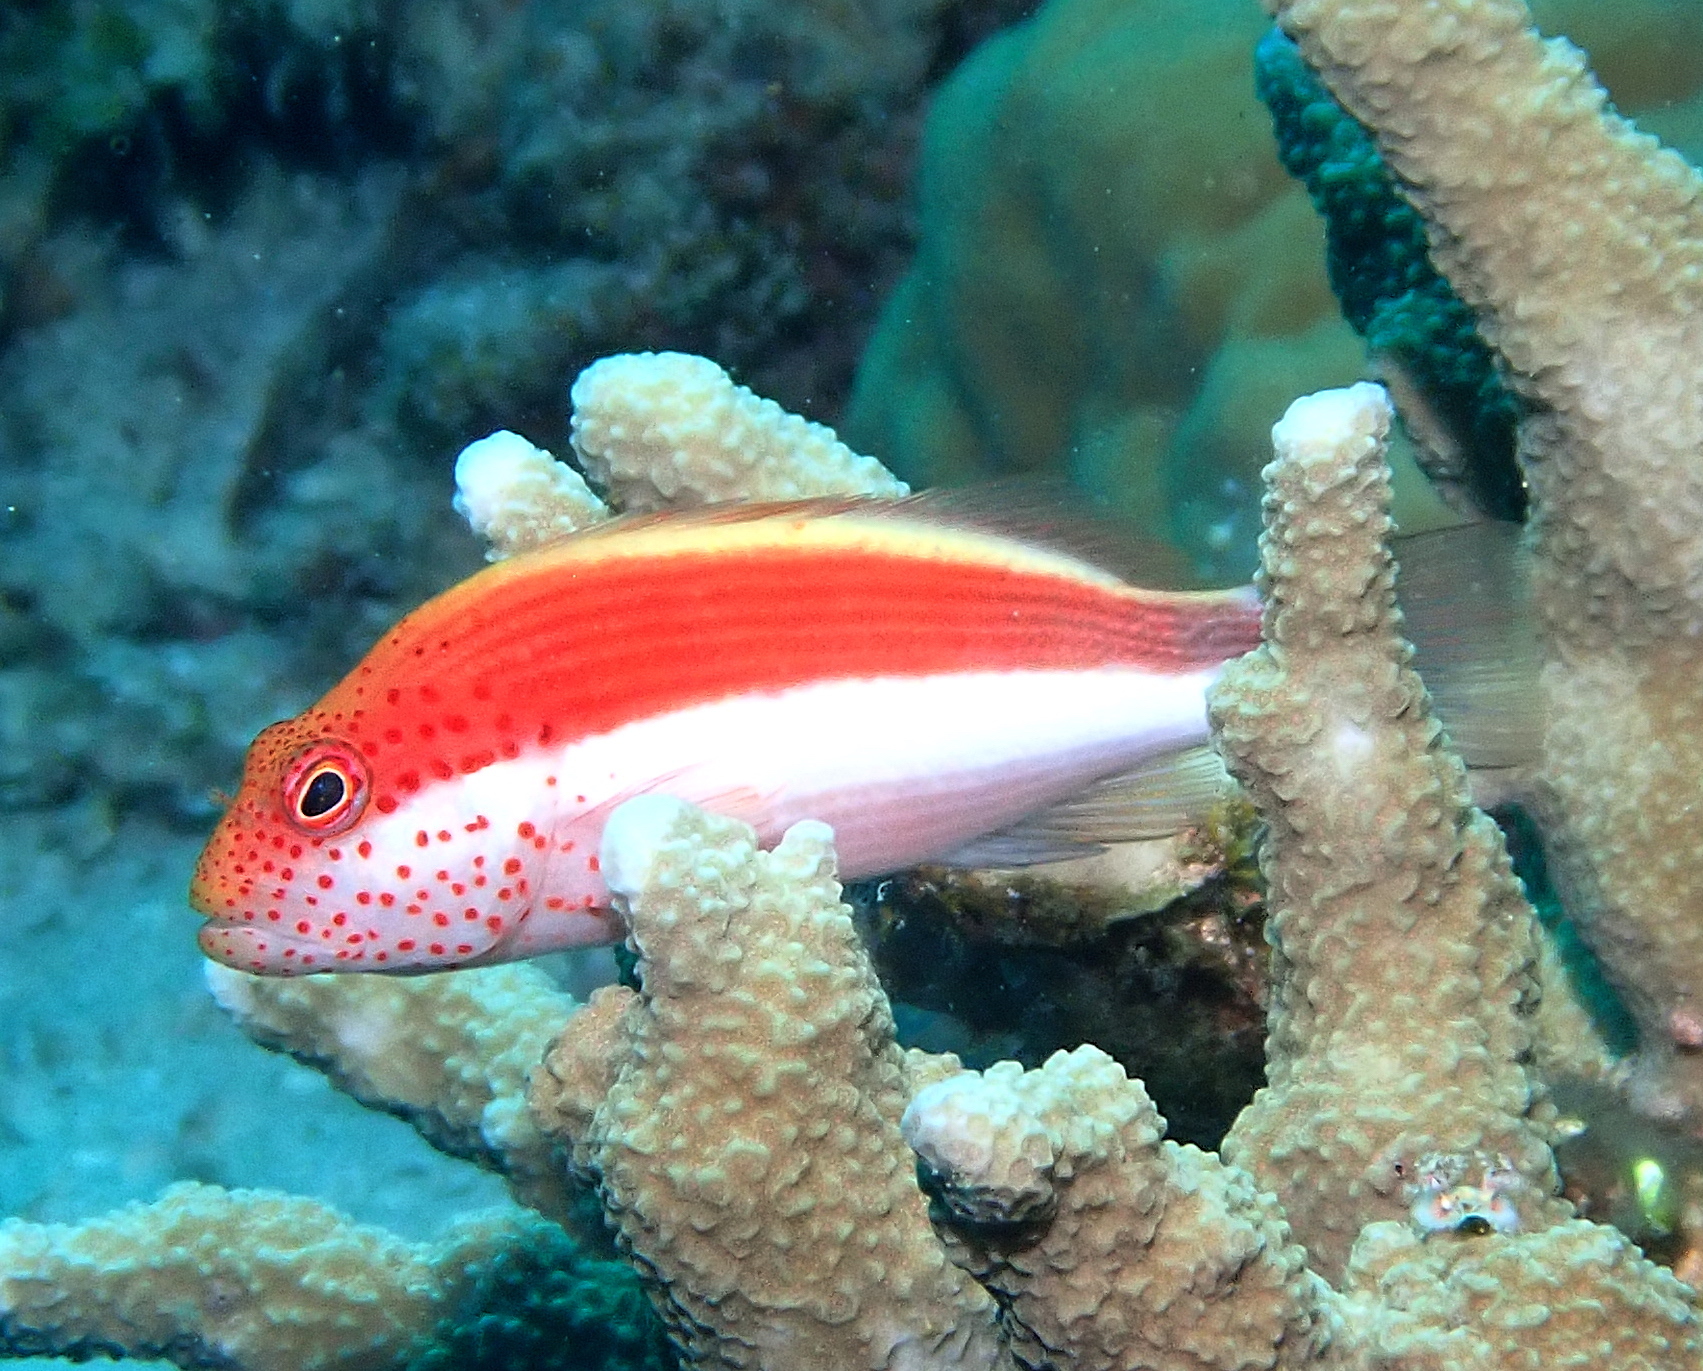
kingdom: Animalia
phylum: Chordata
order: Perciformes
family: Cirrhitidae
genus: Paracirrhites
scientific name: Paracirrhites forsteri
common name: Freckled hawkfish
